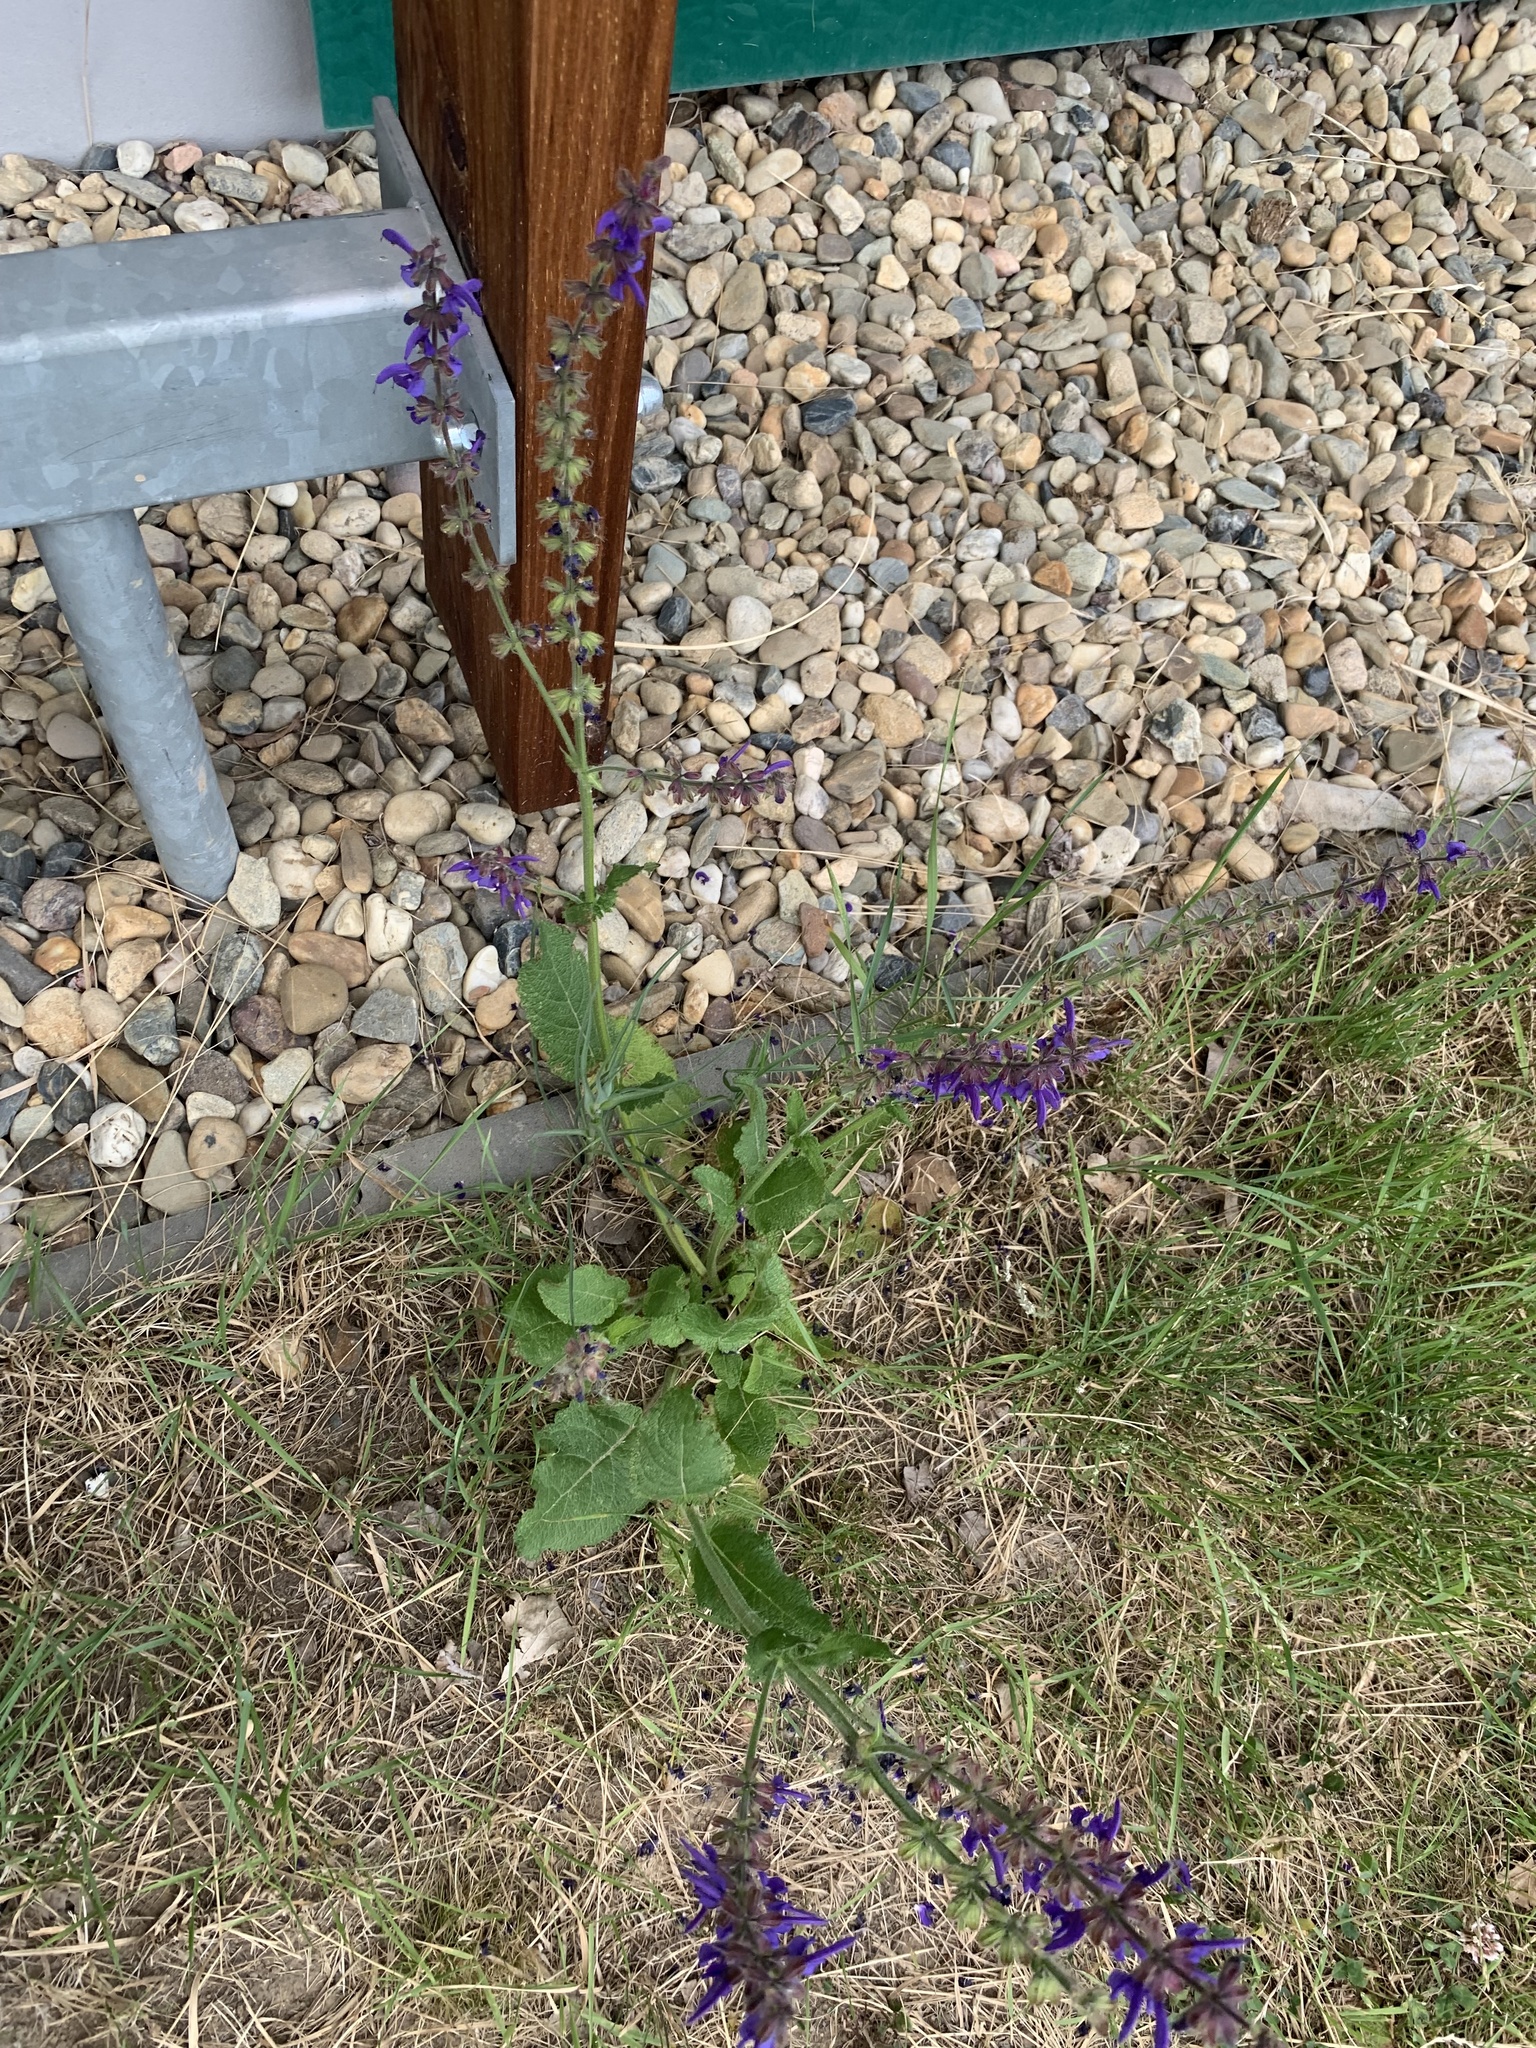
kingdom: Plantae
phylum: Tracheophyta
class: Magnoliopsida
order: Lamiales
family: Lamiaceae
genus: Salvia
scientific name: Salvia pratensis
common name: Meadow sage
